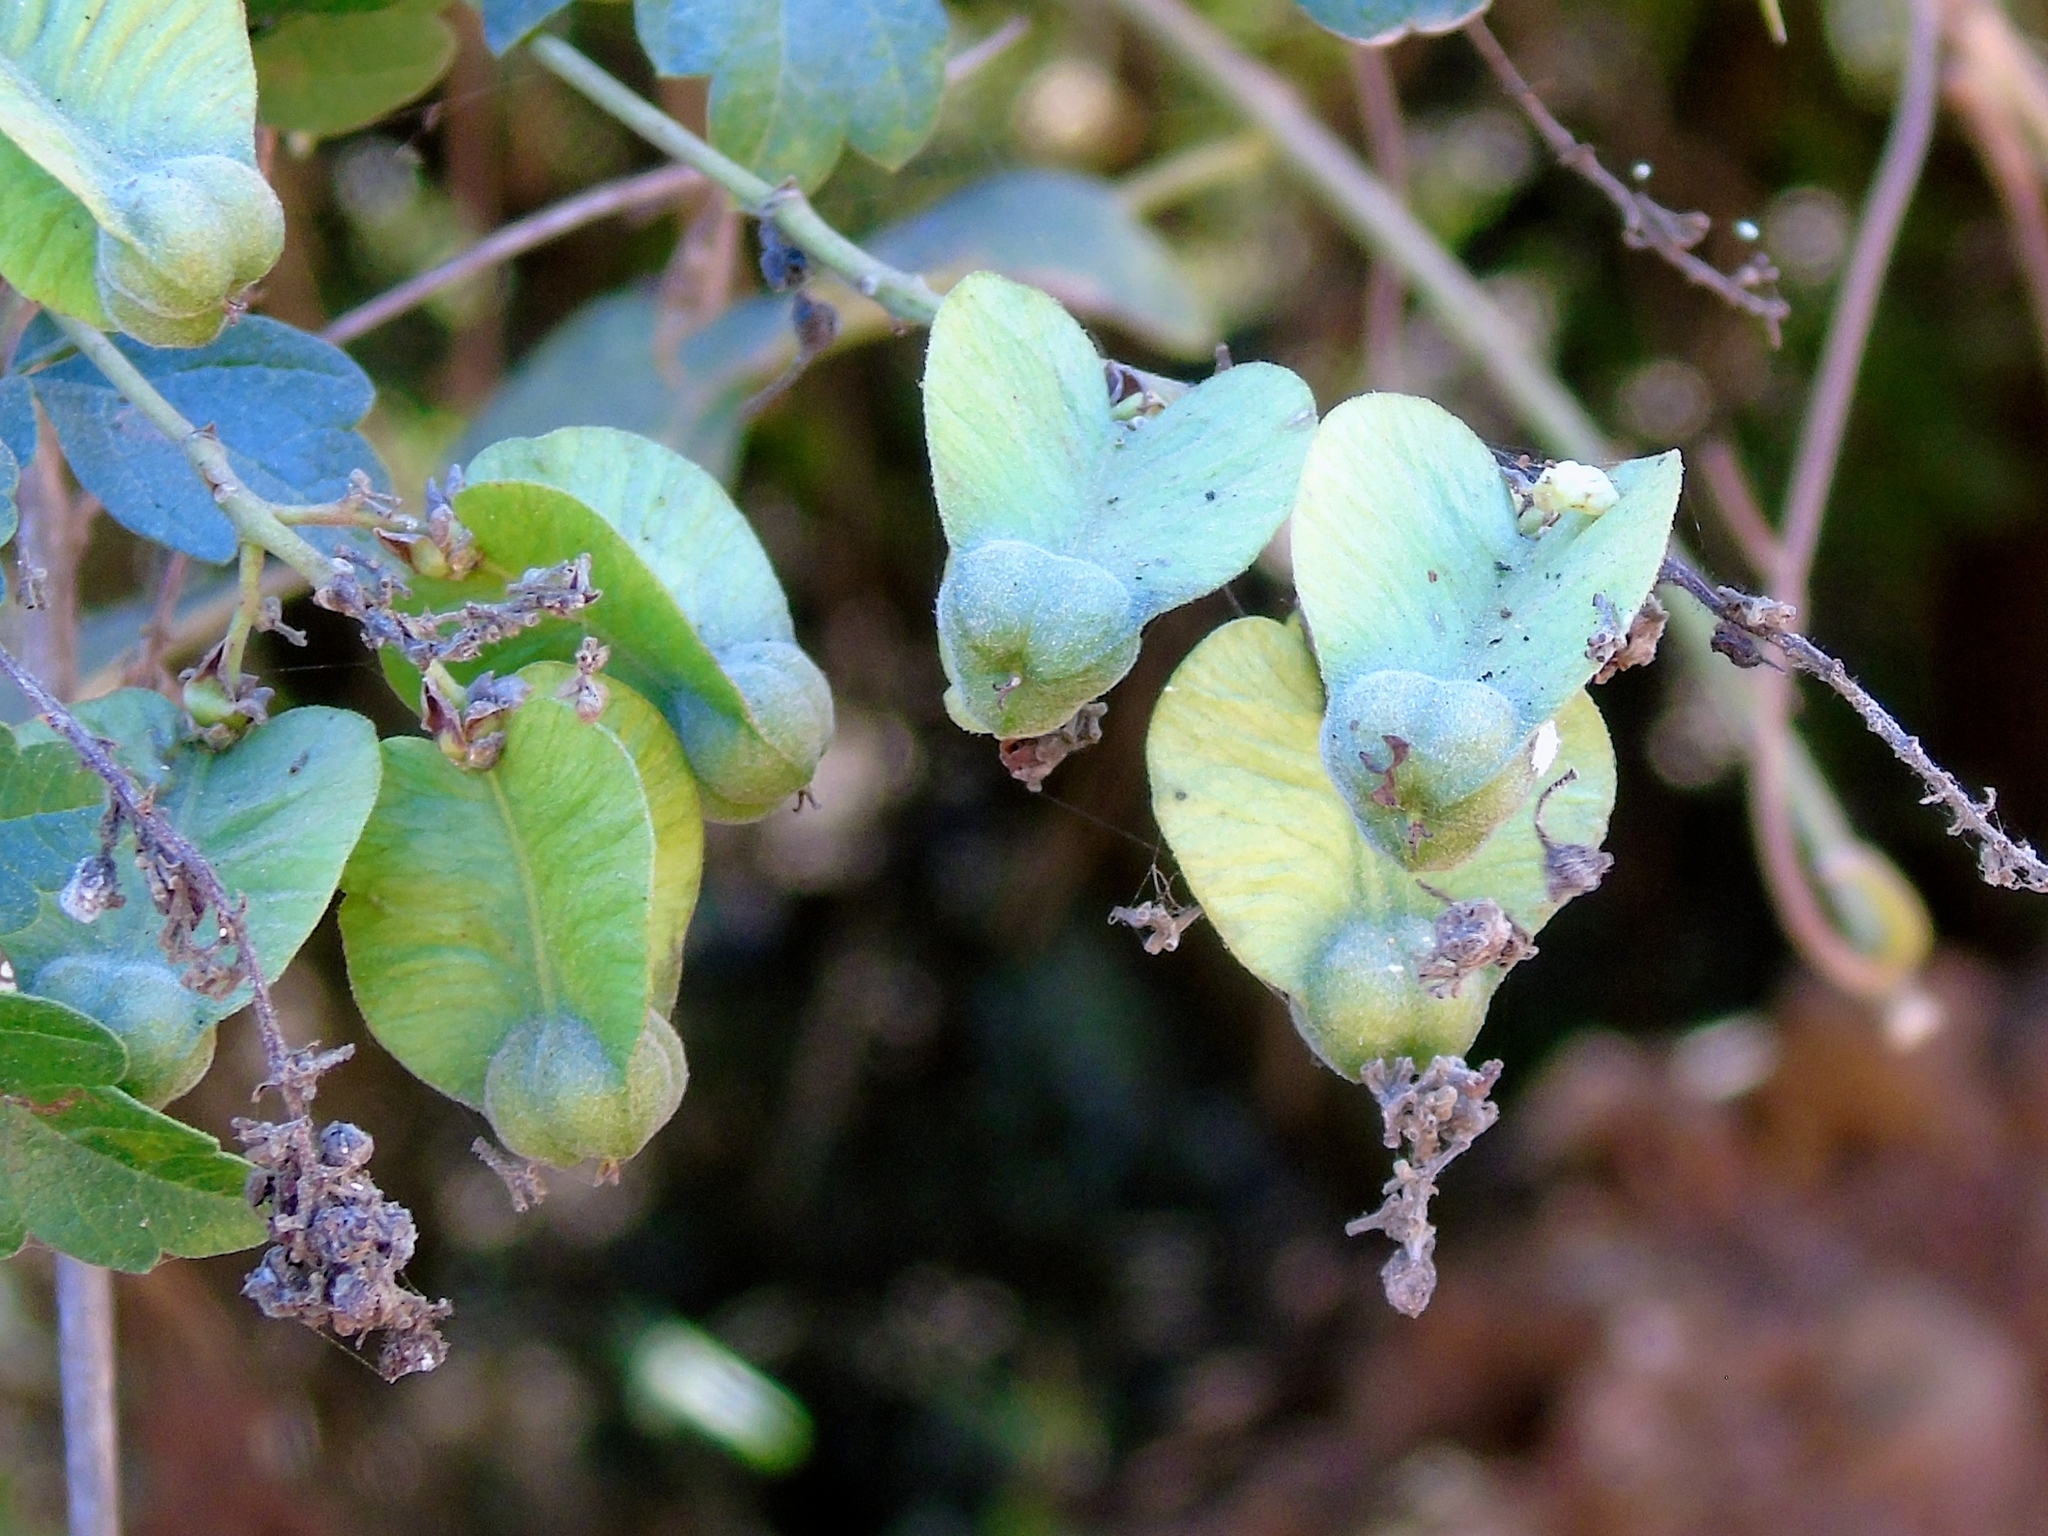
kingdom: Plantae
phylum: Tracheophyta
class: Magnoliopsida
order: Sapindales
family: Sapindaceae
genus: Serjania
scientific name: Serjania
